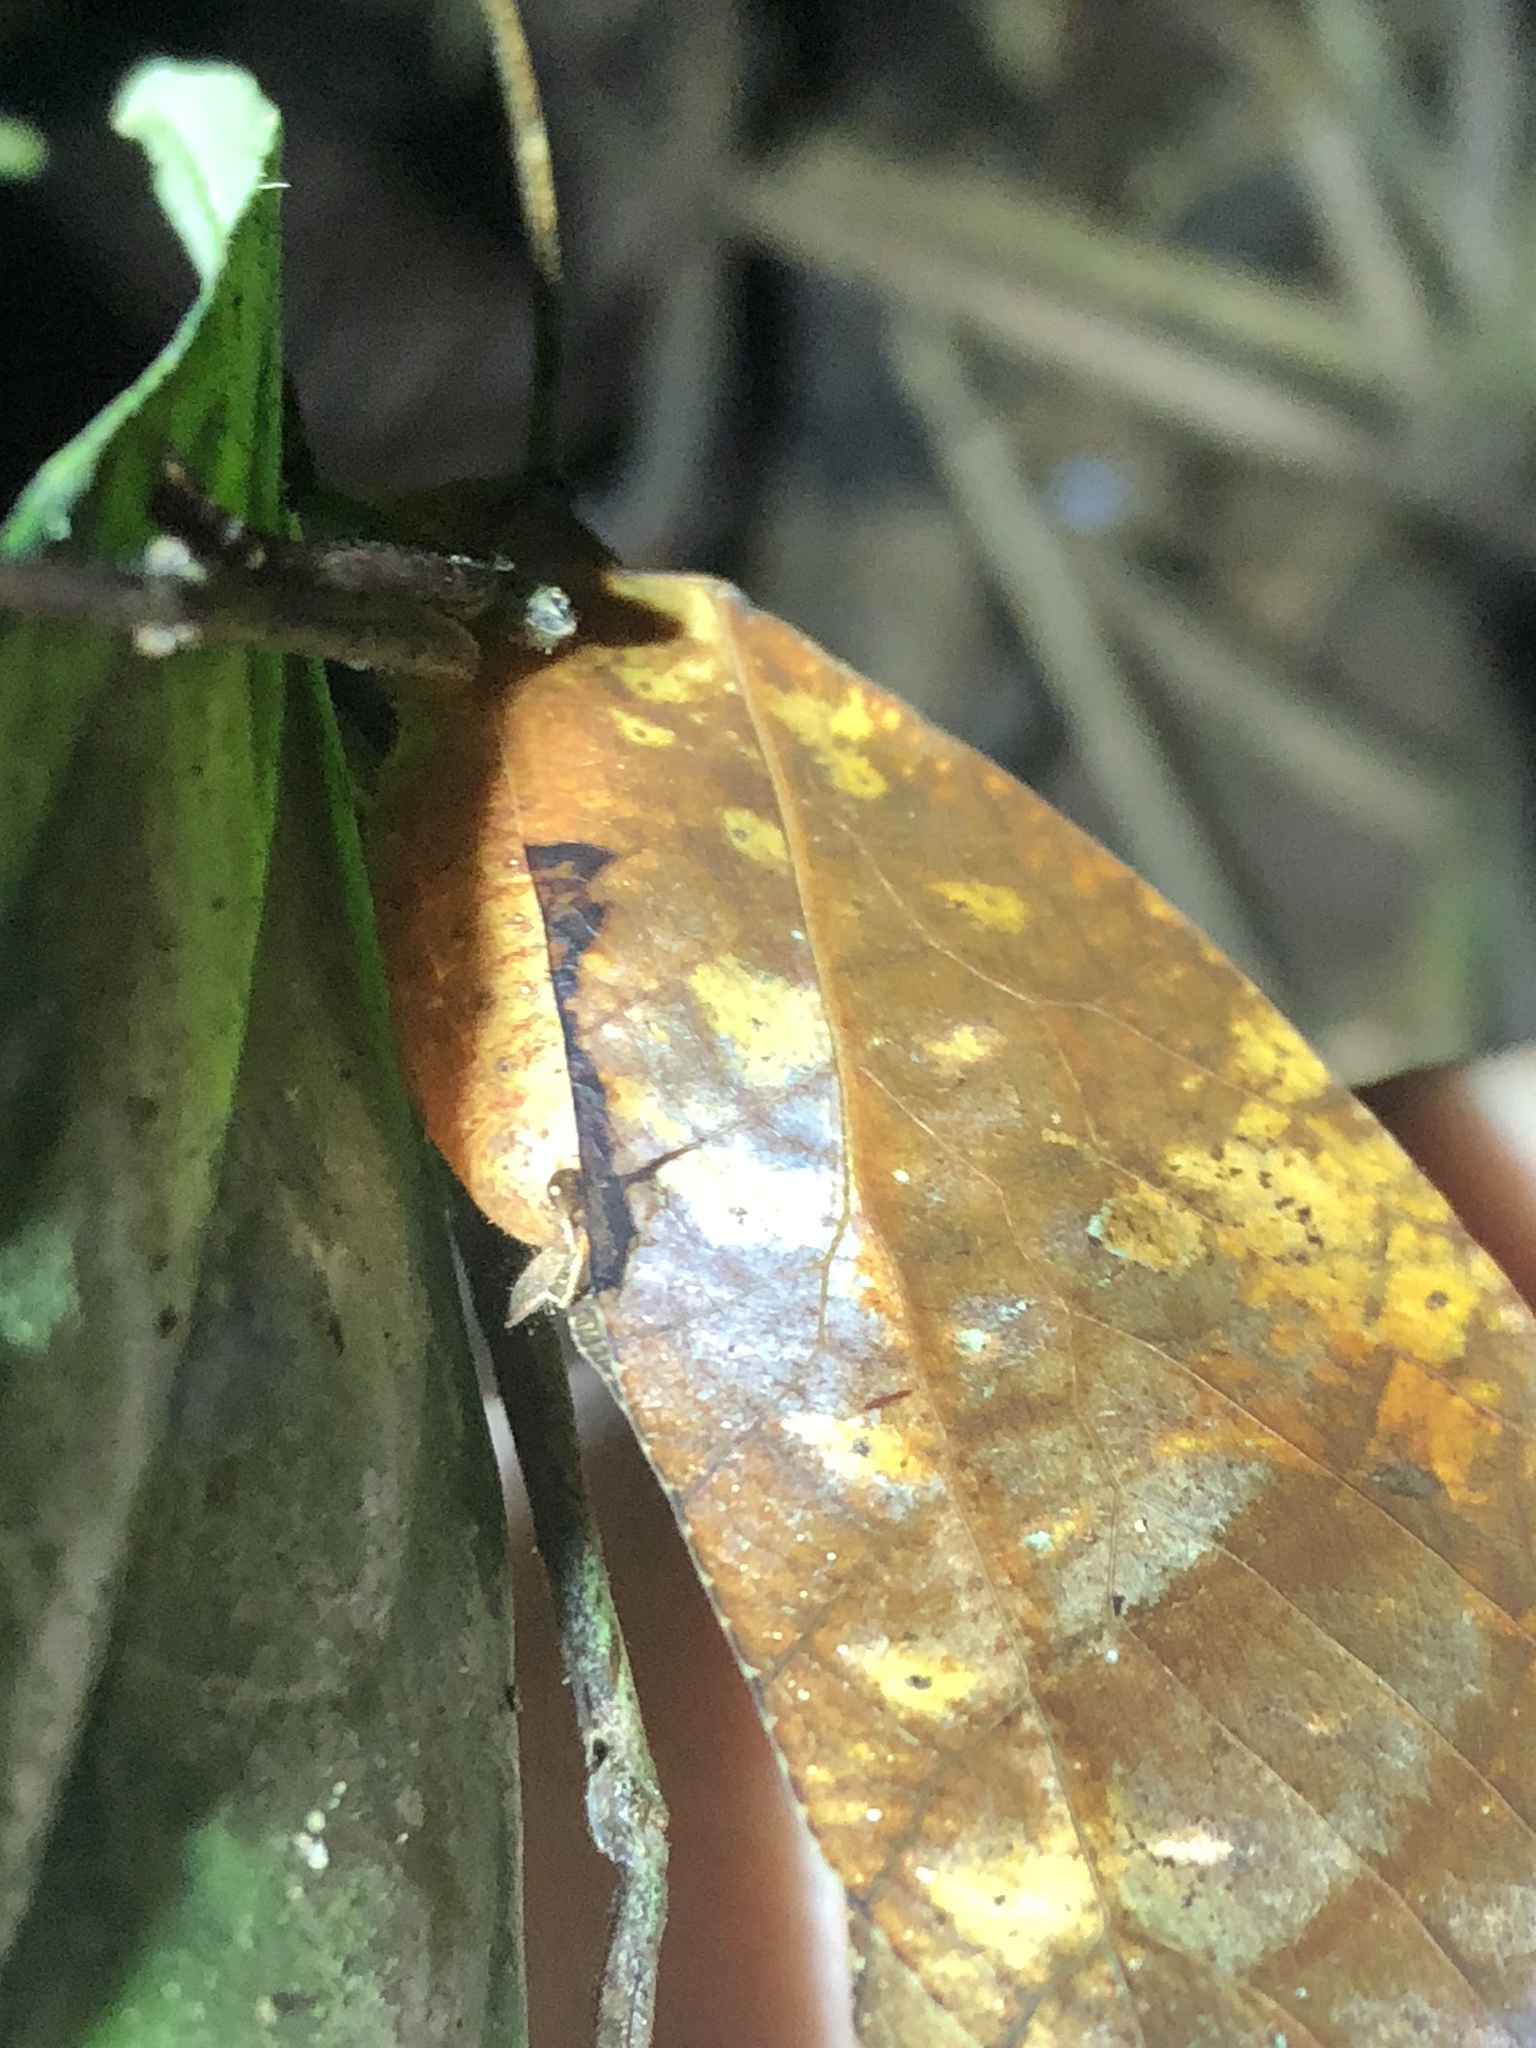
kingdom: Animalia
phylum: Arthropoda
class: Insecta
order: Orthoptera
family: Tettigoniidae
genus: Pterochroza
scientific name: Pterochroza ocellata
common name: Peacock katydid
